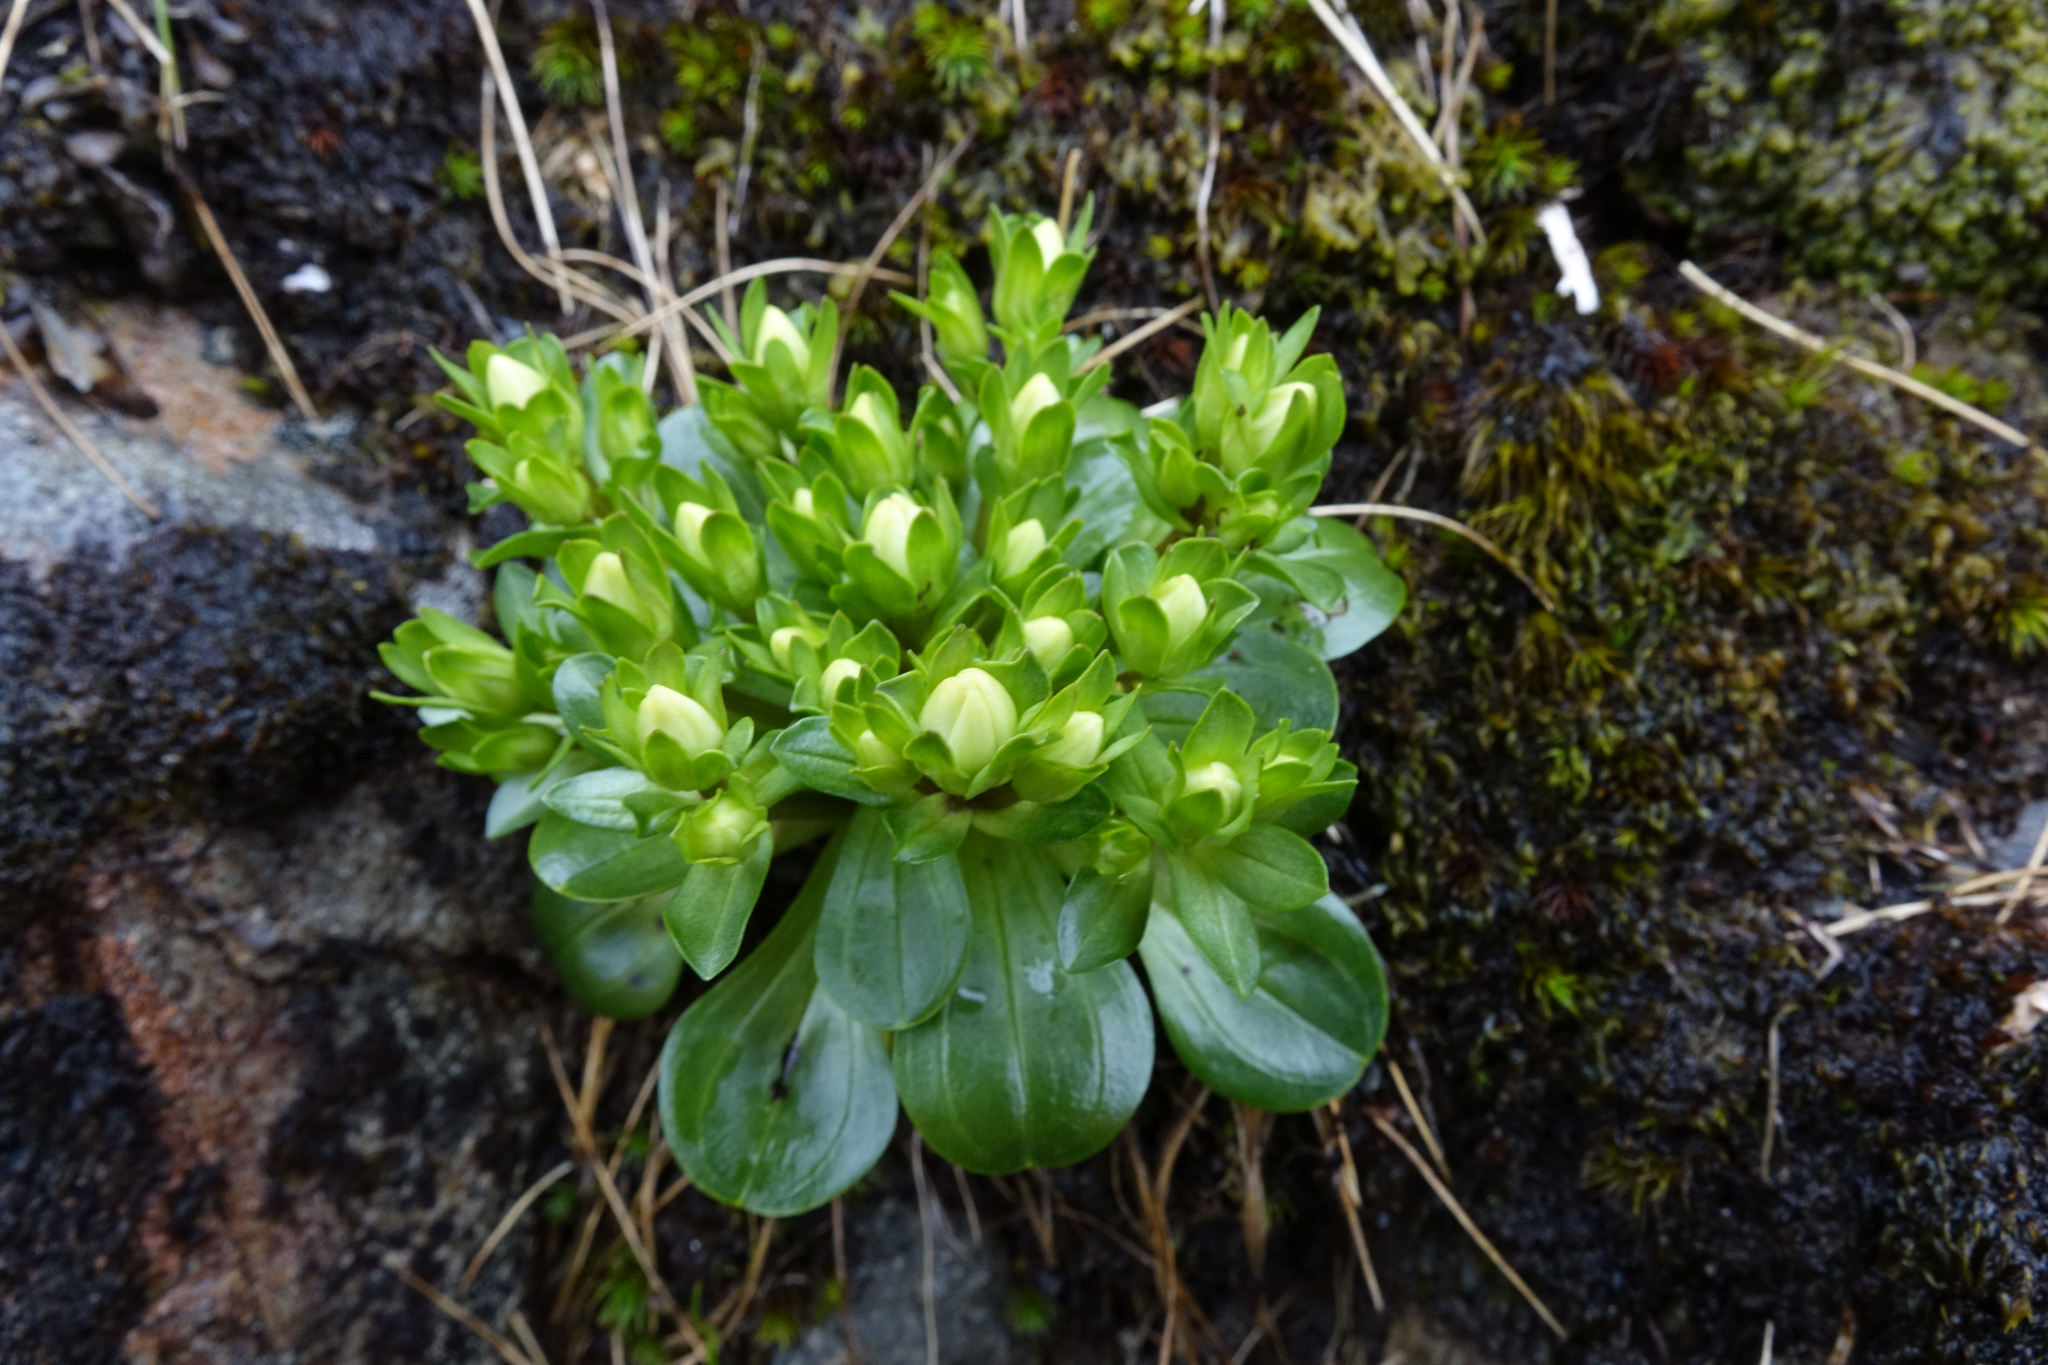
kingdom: Plantae
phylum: Tracheophyta
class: Magnoliopsida
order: Gentianales
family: Gentianaceae
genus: Gentianella
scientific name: Gentianella divisa
